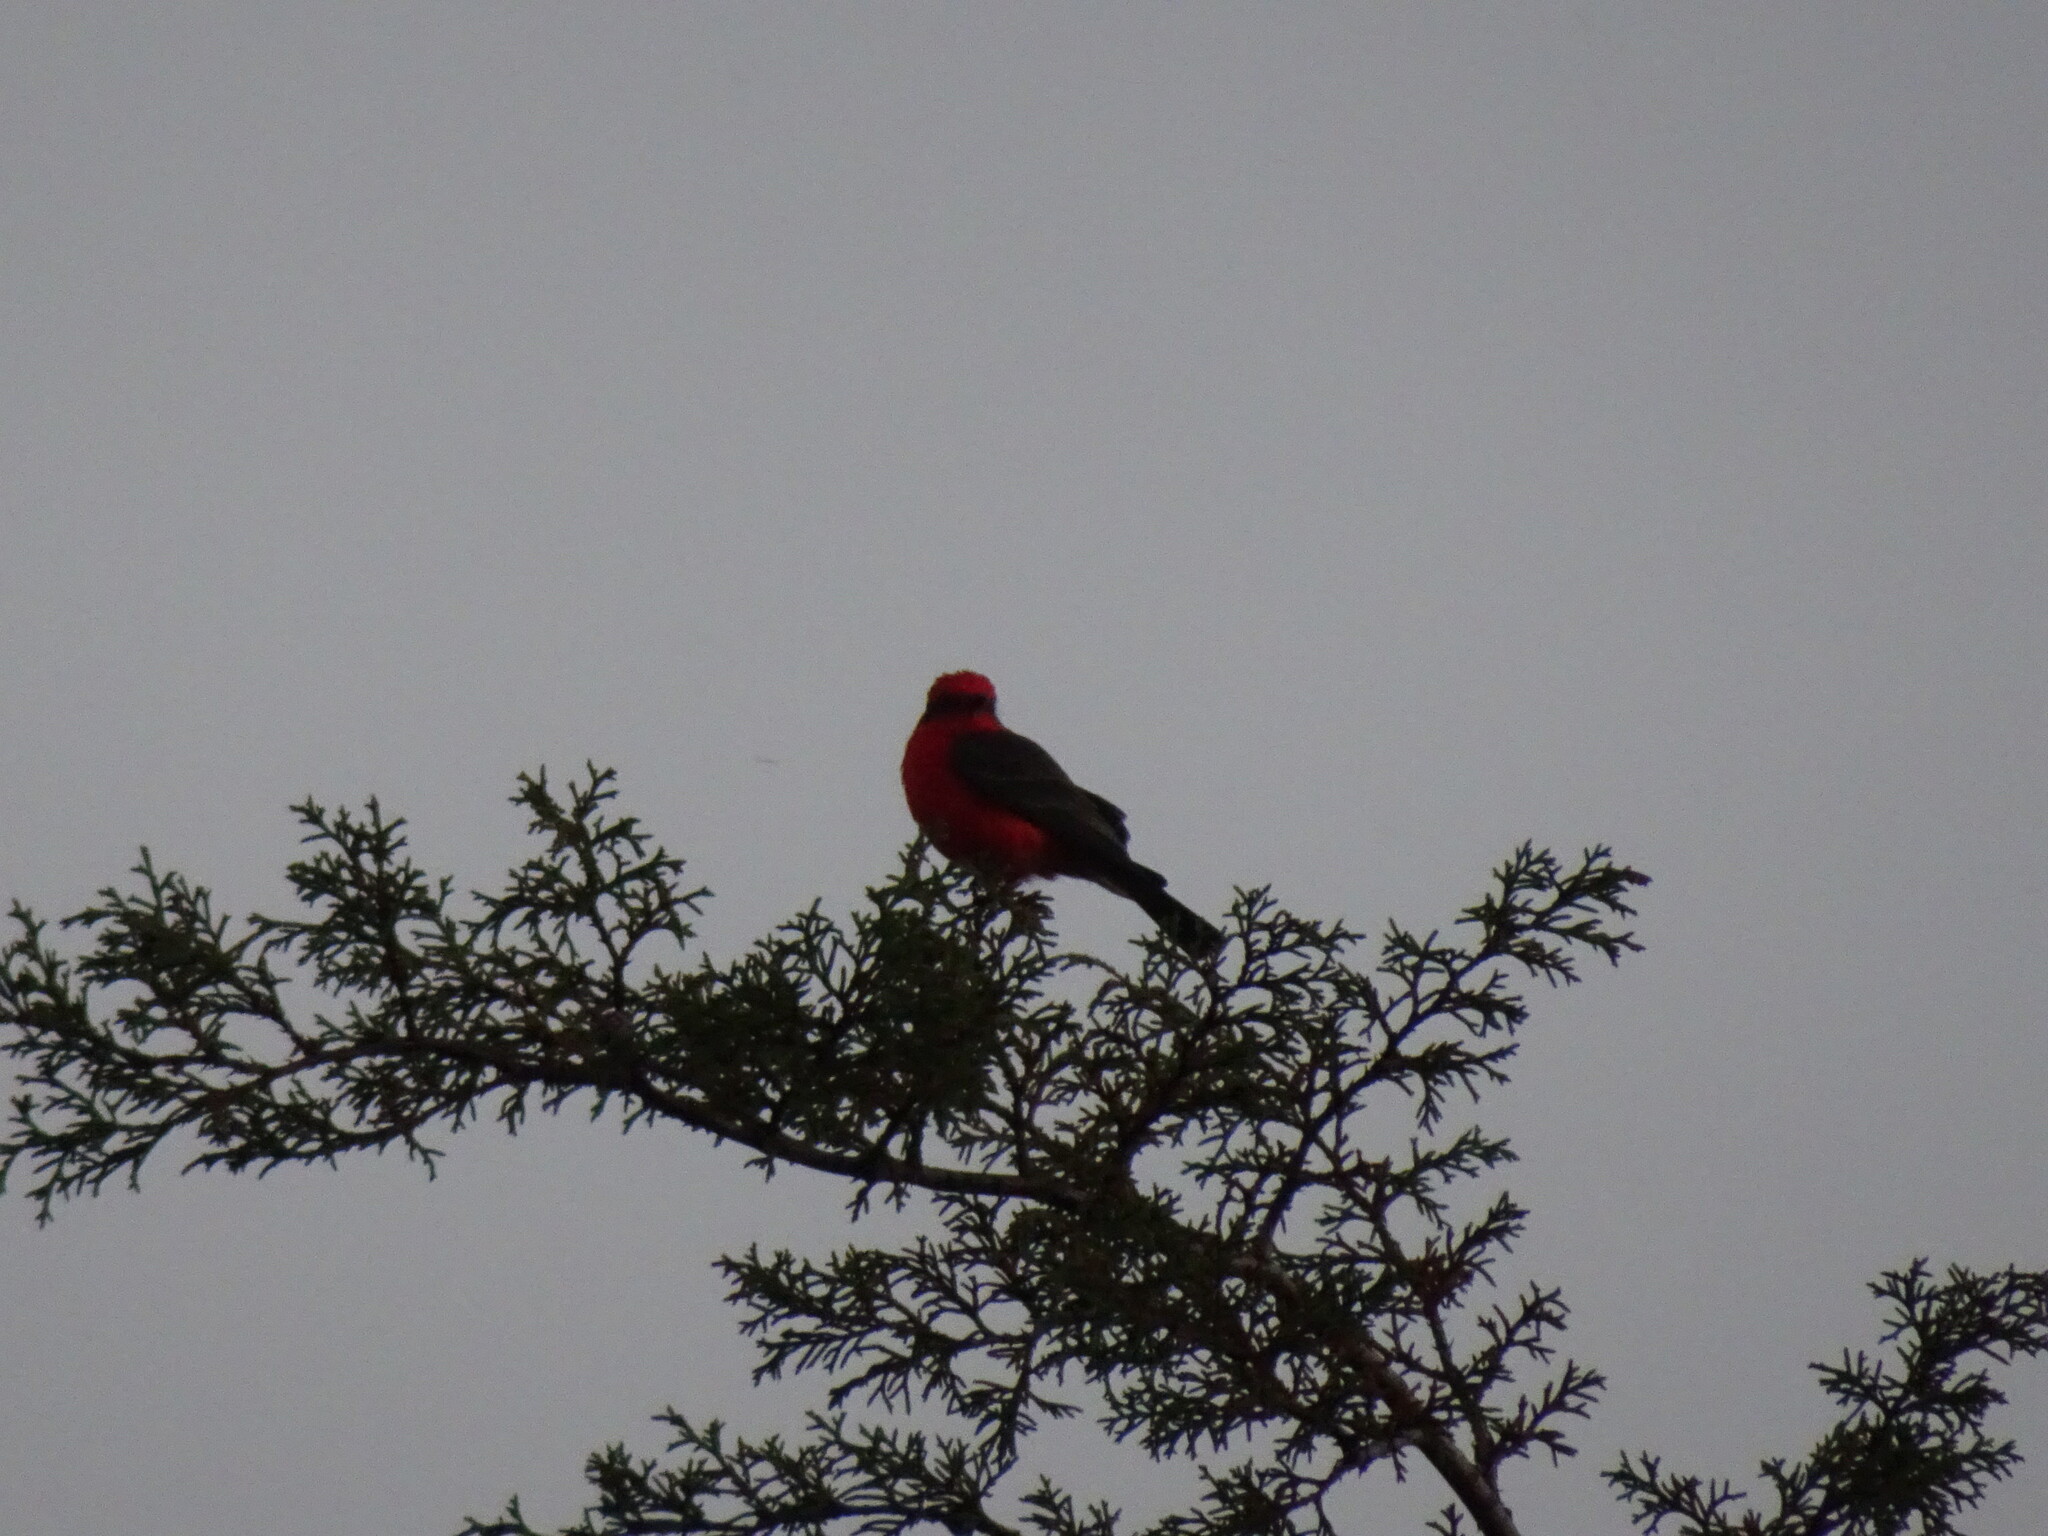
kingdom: Animalia
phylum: Chordata
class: Aves
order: Passeriformes
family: Tyrannidae
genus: Pyrocephalus
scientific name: Pyrocephalus rubinus
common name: Vermilion flycatcher
